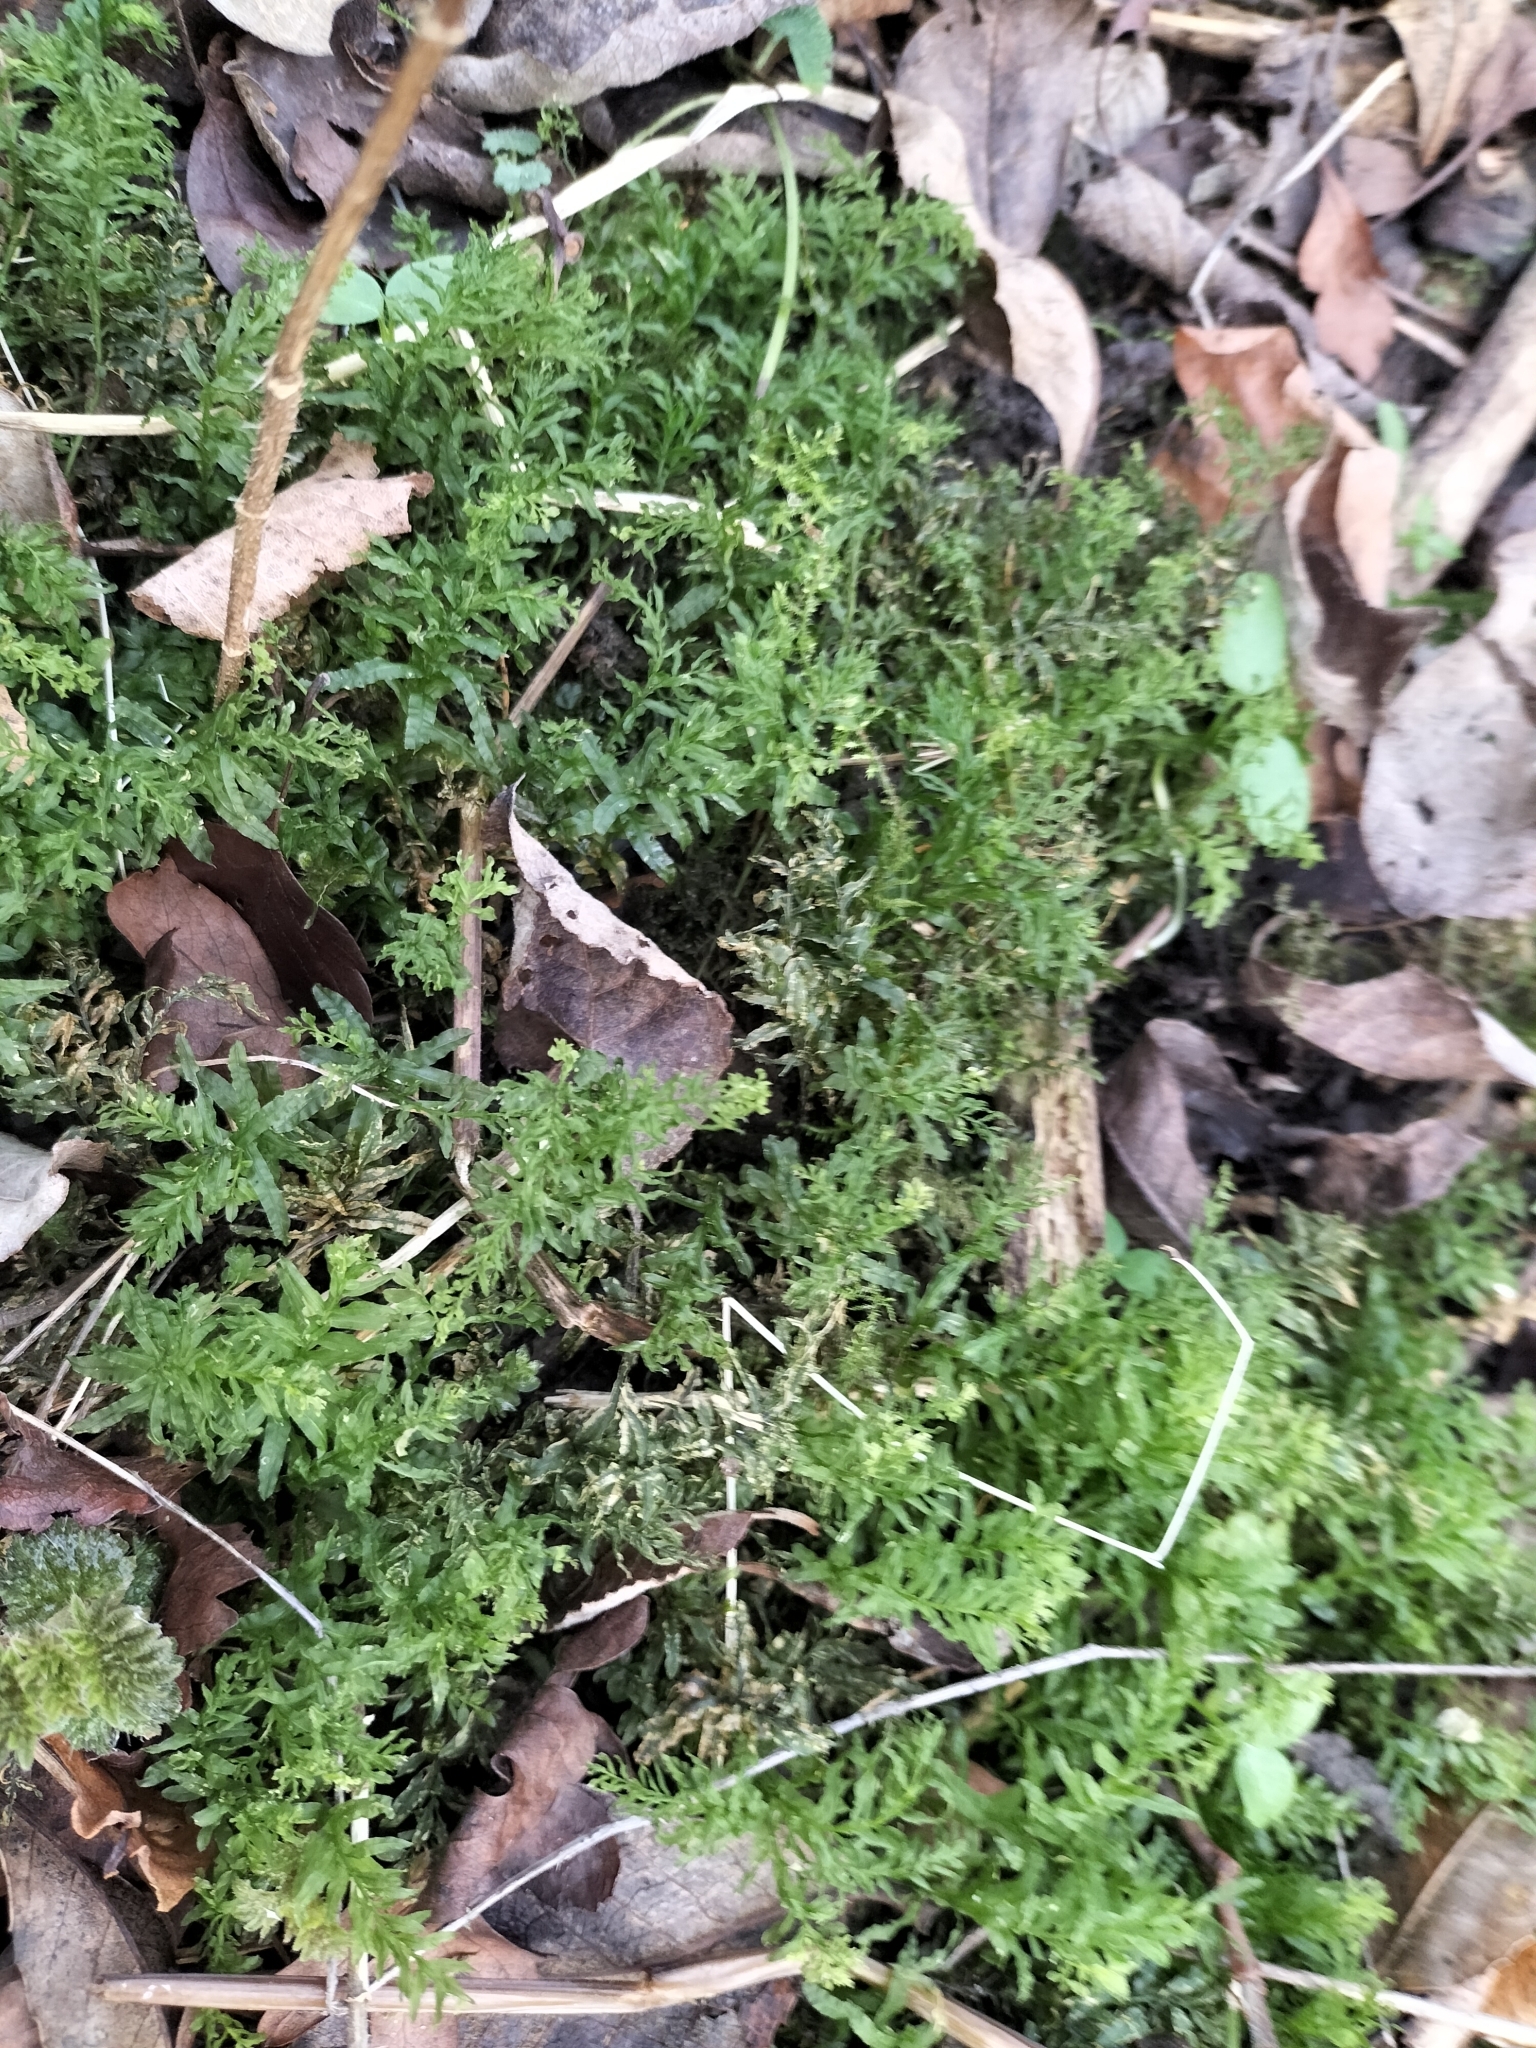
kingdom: Plantae
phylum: Bryophyta
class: Bryopsida
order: Bryales
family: Mniaceae
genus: Plagiomnium
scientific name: Plagiomnium undulatum
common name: Hart's-tongue thyme-moss
